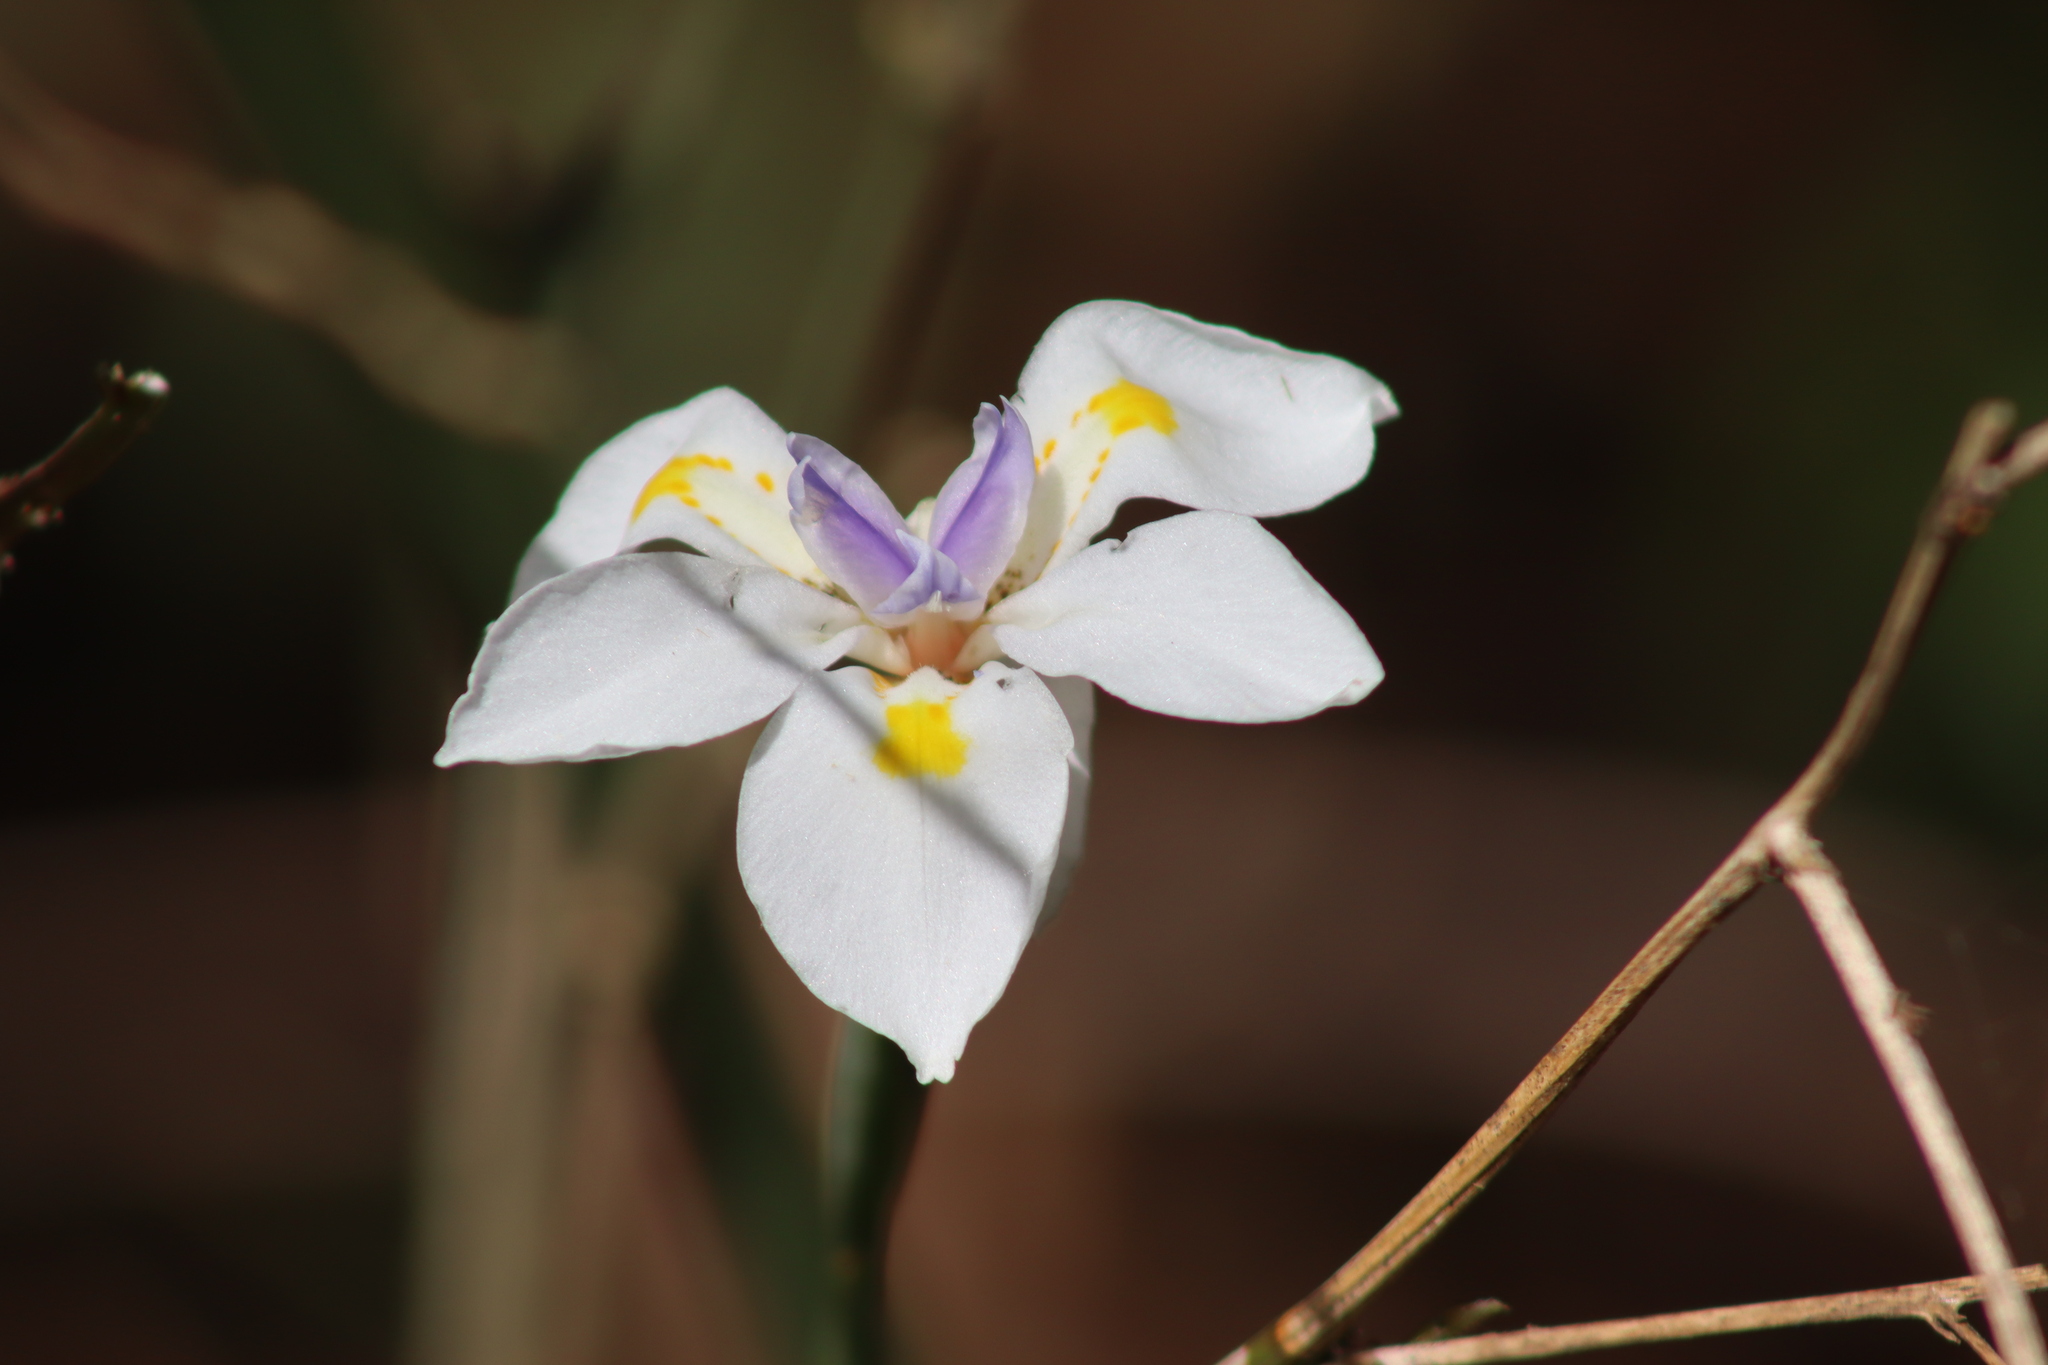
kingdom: Plantae
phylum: Tracheophyta
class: Liliopsida
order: Asparagales
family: Iridaceae
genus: Dietes
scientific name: Dietes iridioides
